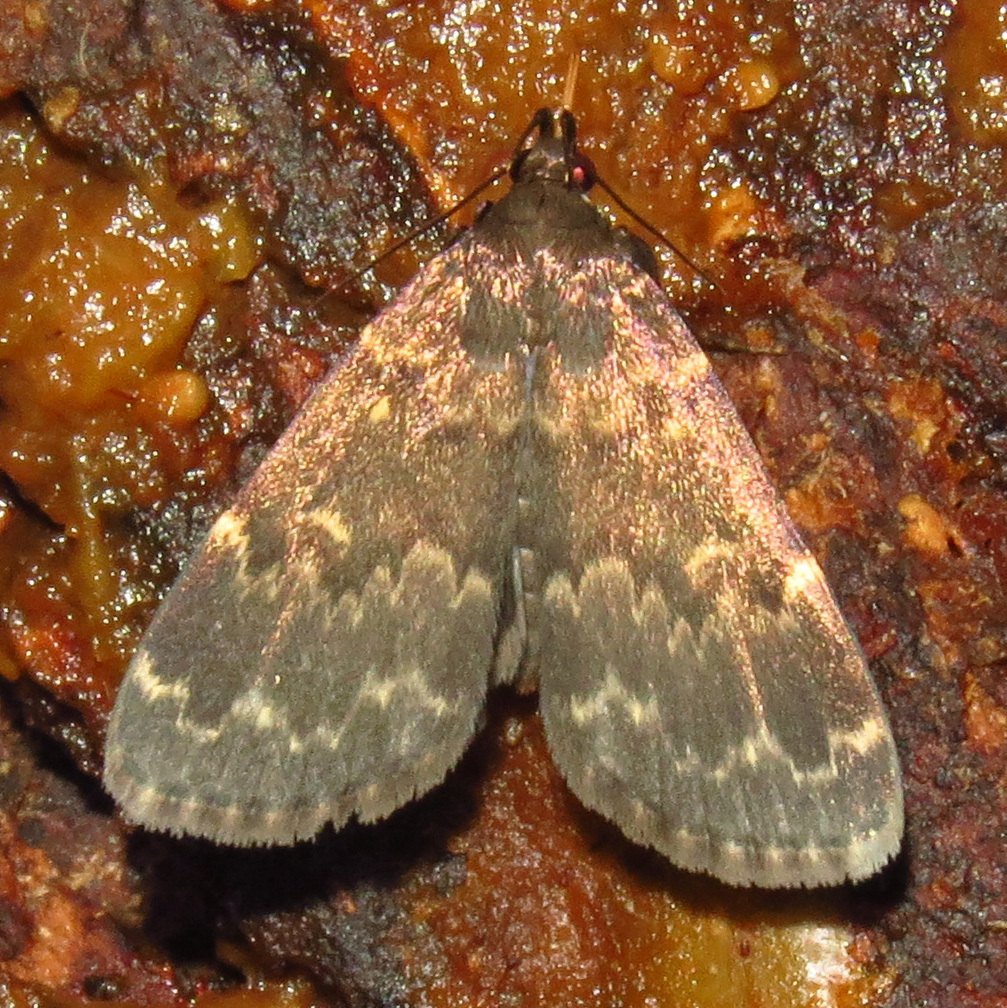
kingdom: Animalia
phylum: Arthropoda
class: Insecta
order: Lepidoptera
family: Erebidae
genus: Idia
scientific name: Idia lubricalis
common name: Twin-striped tabby
